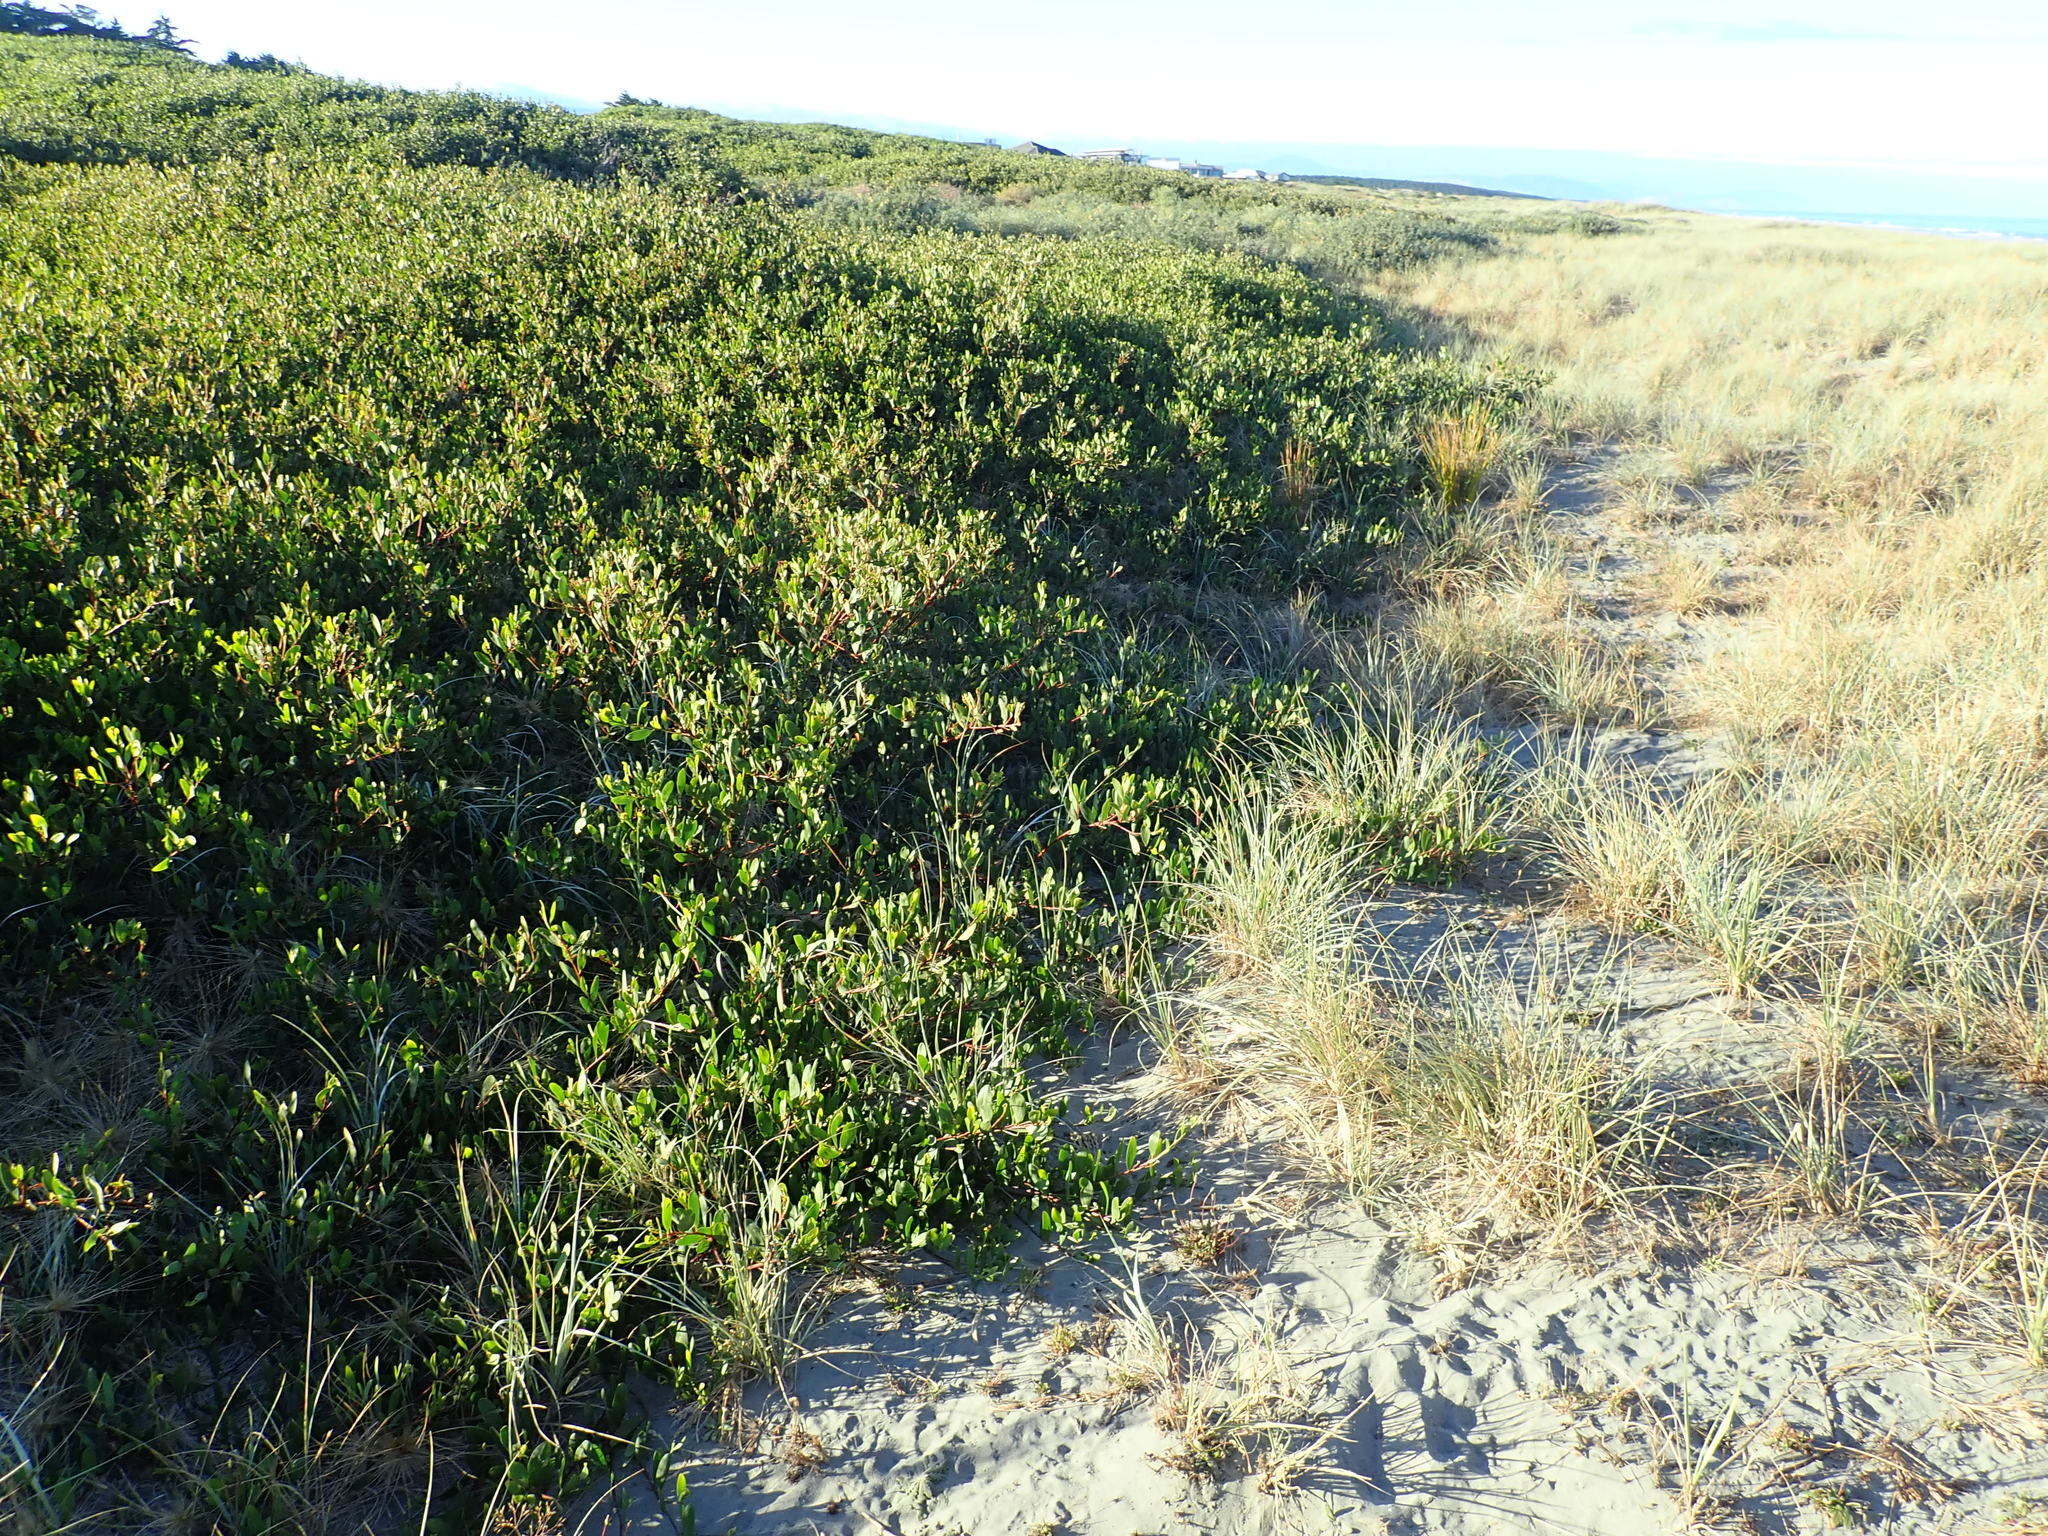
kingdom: Plantae
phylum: Tracheophyta
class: Magnoliopsida
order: Fabales
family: Fabaceae
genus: Acacia
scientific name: Acacia longifolia
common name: Sydney golden wattle
